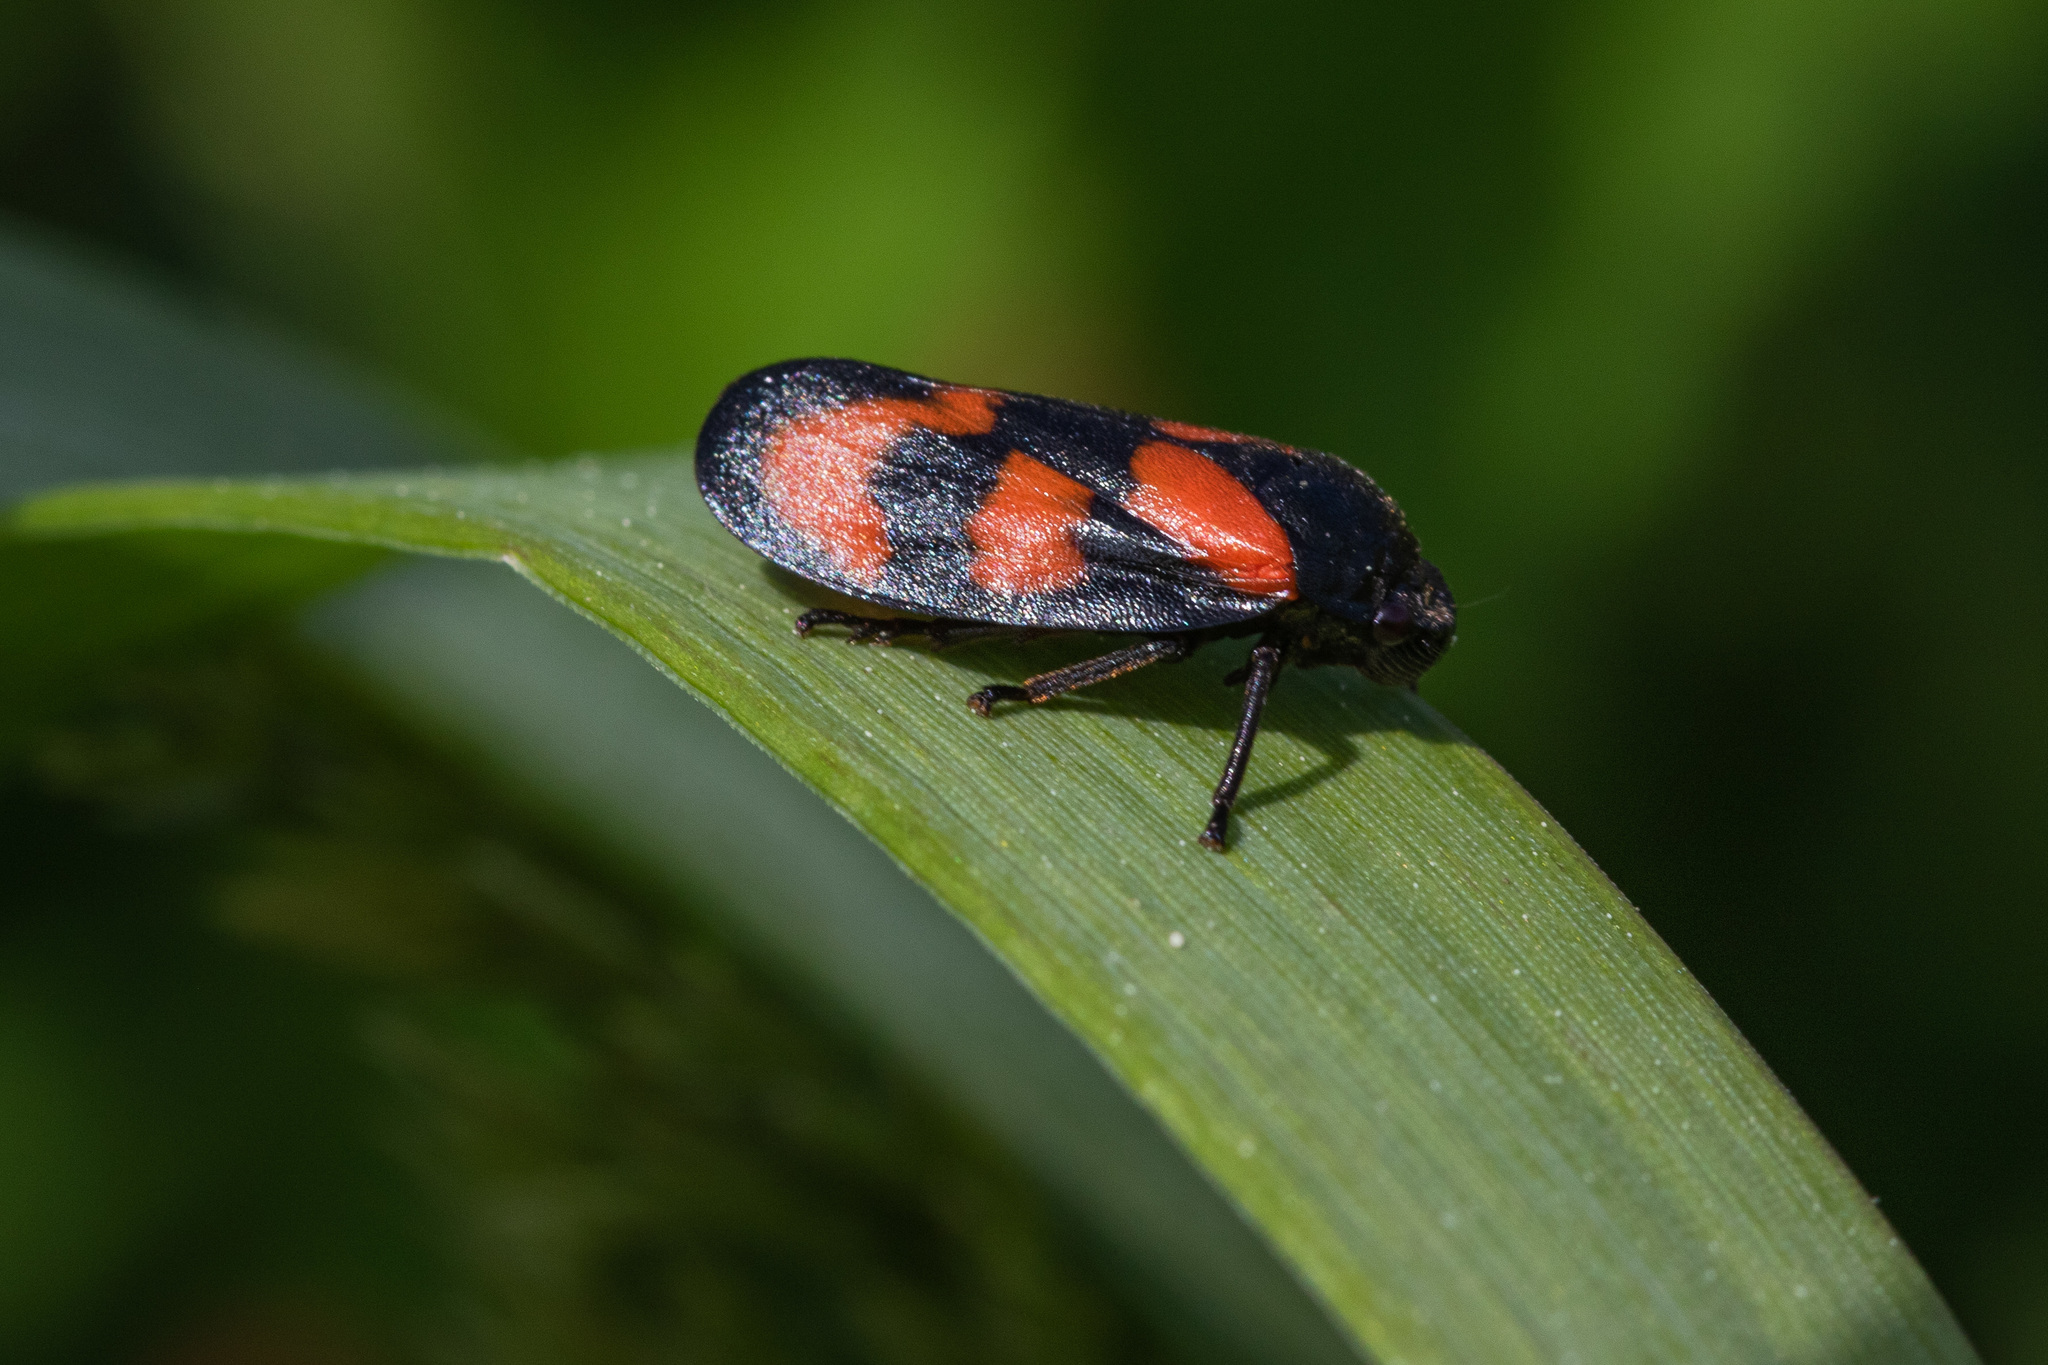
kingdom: Animalia
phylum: Arthropoda
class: Insecta
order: Hemiptera
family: Cercopidae
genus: Cercopis
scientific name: Cercopis vulnerata
